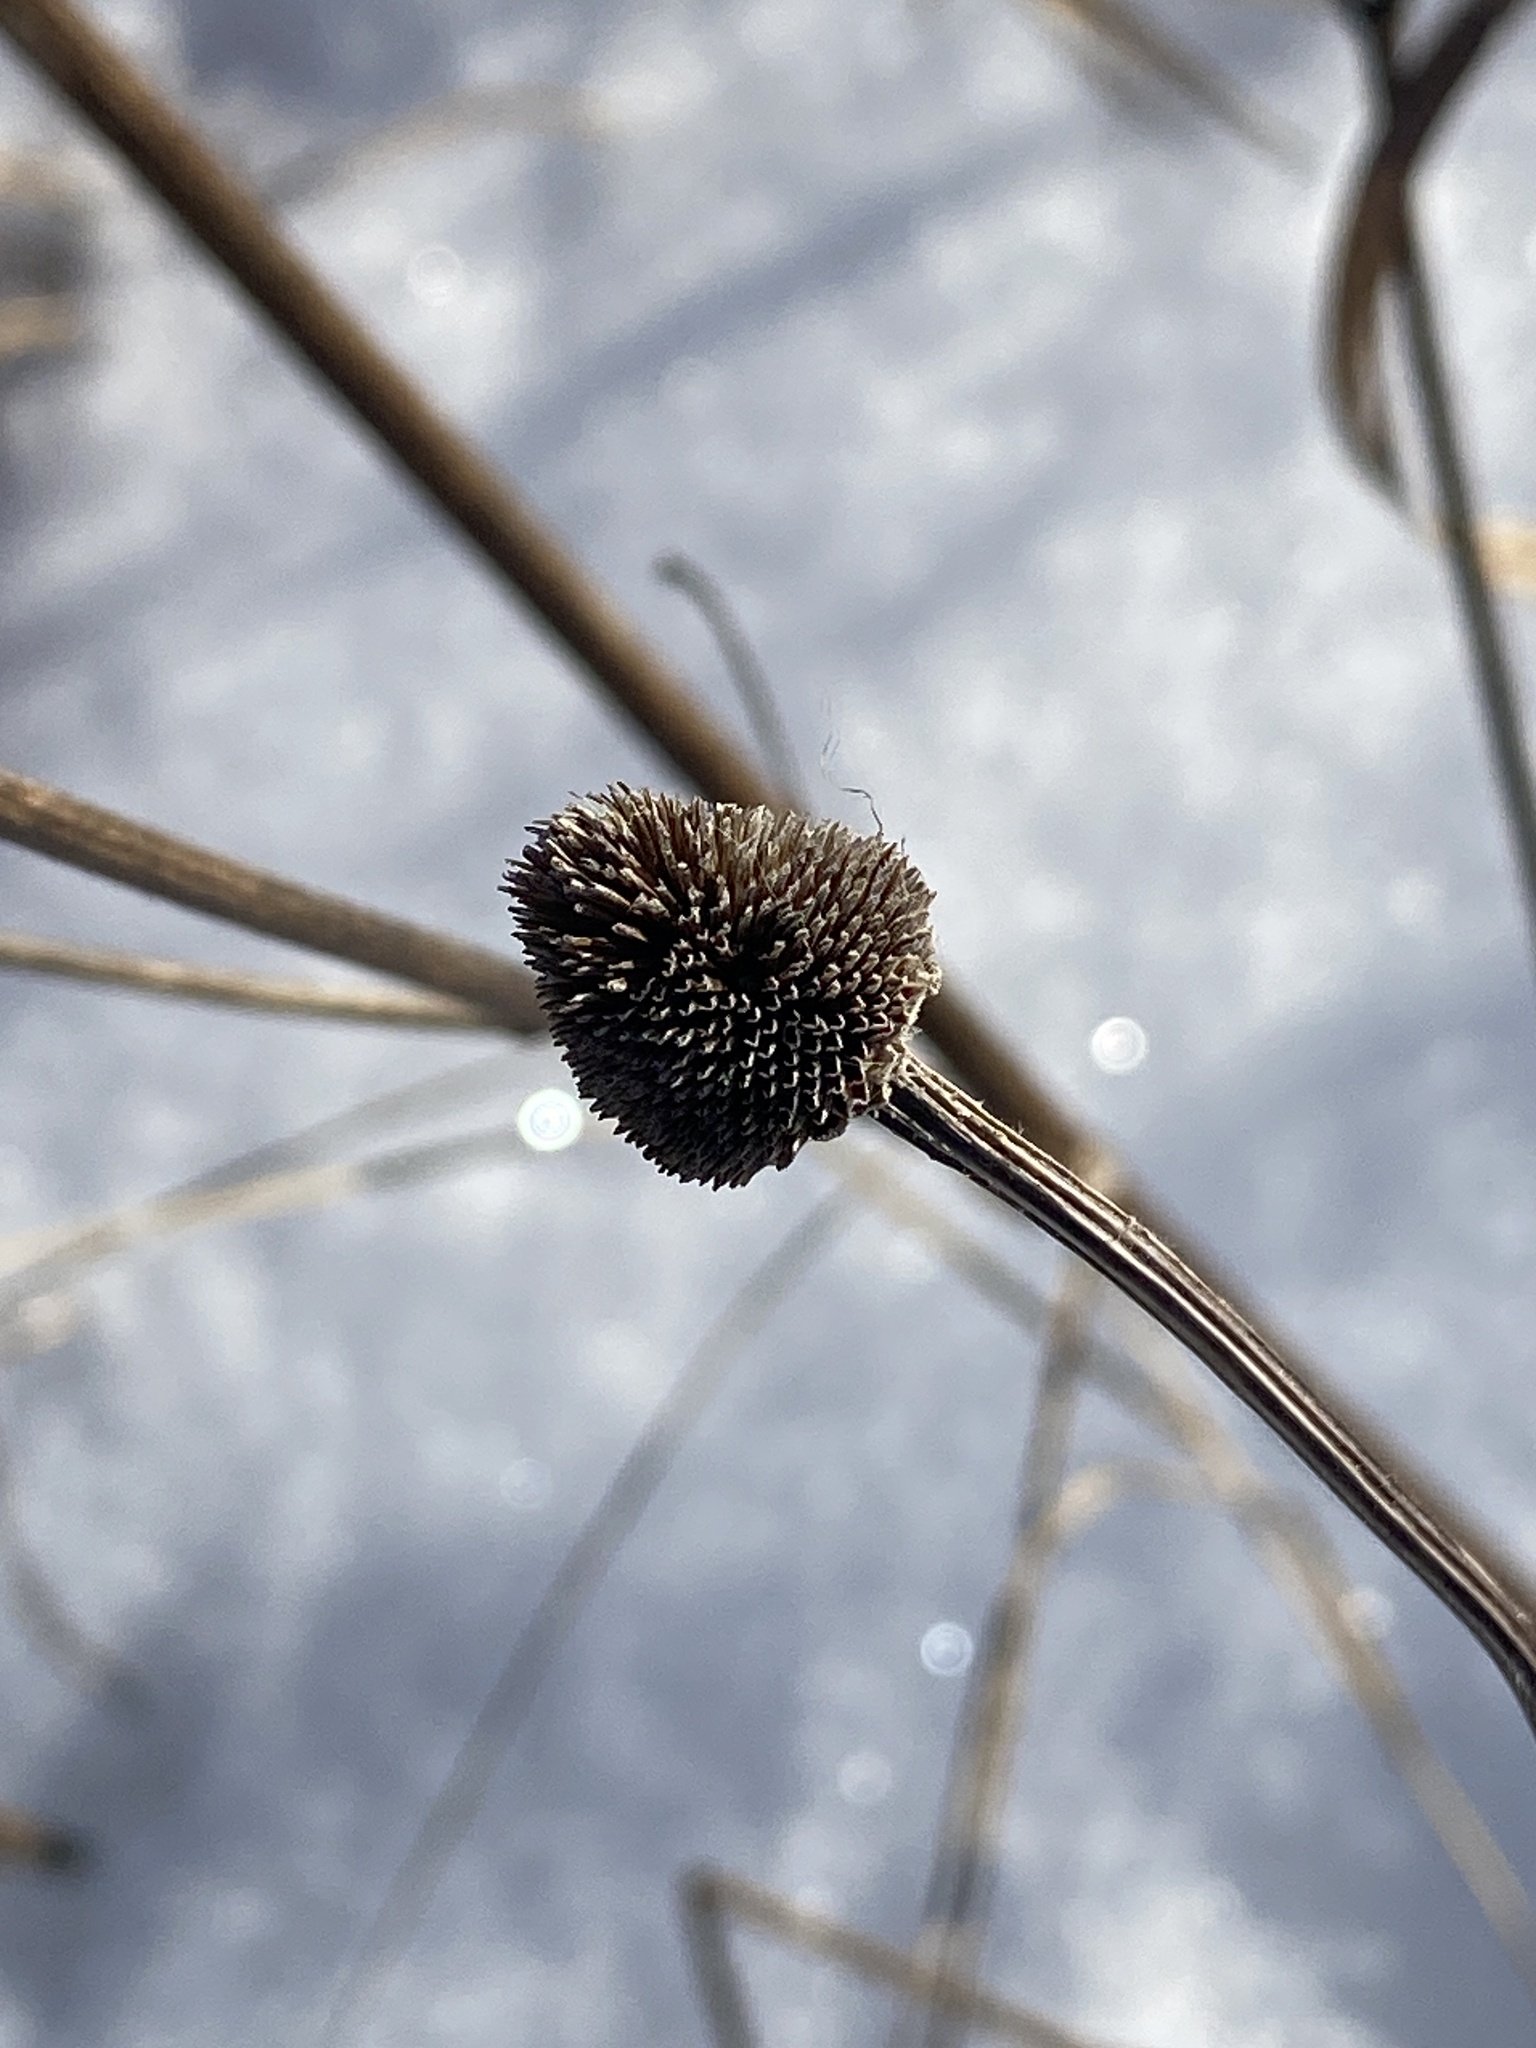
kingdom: Plantae
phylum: Tracheophyta
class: Magnoliopsida
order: Asterales
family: Asteraceae
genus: Rudbeckia
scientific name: Rudbeckia hirta
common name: Black-eyed-susan
